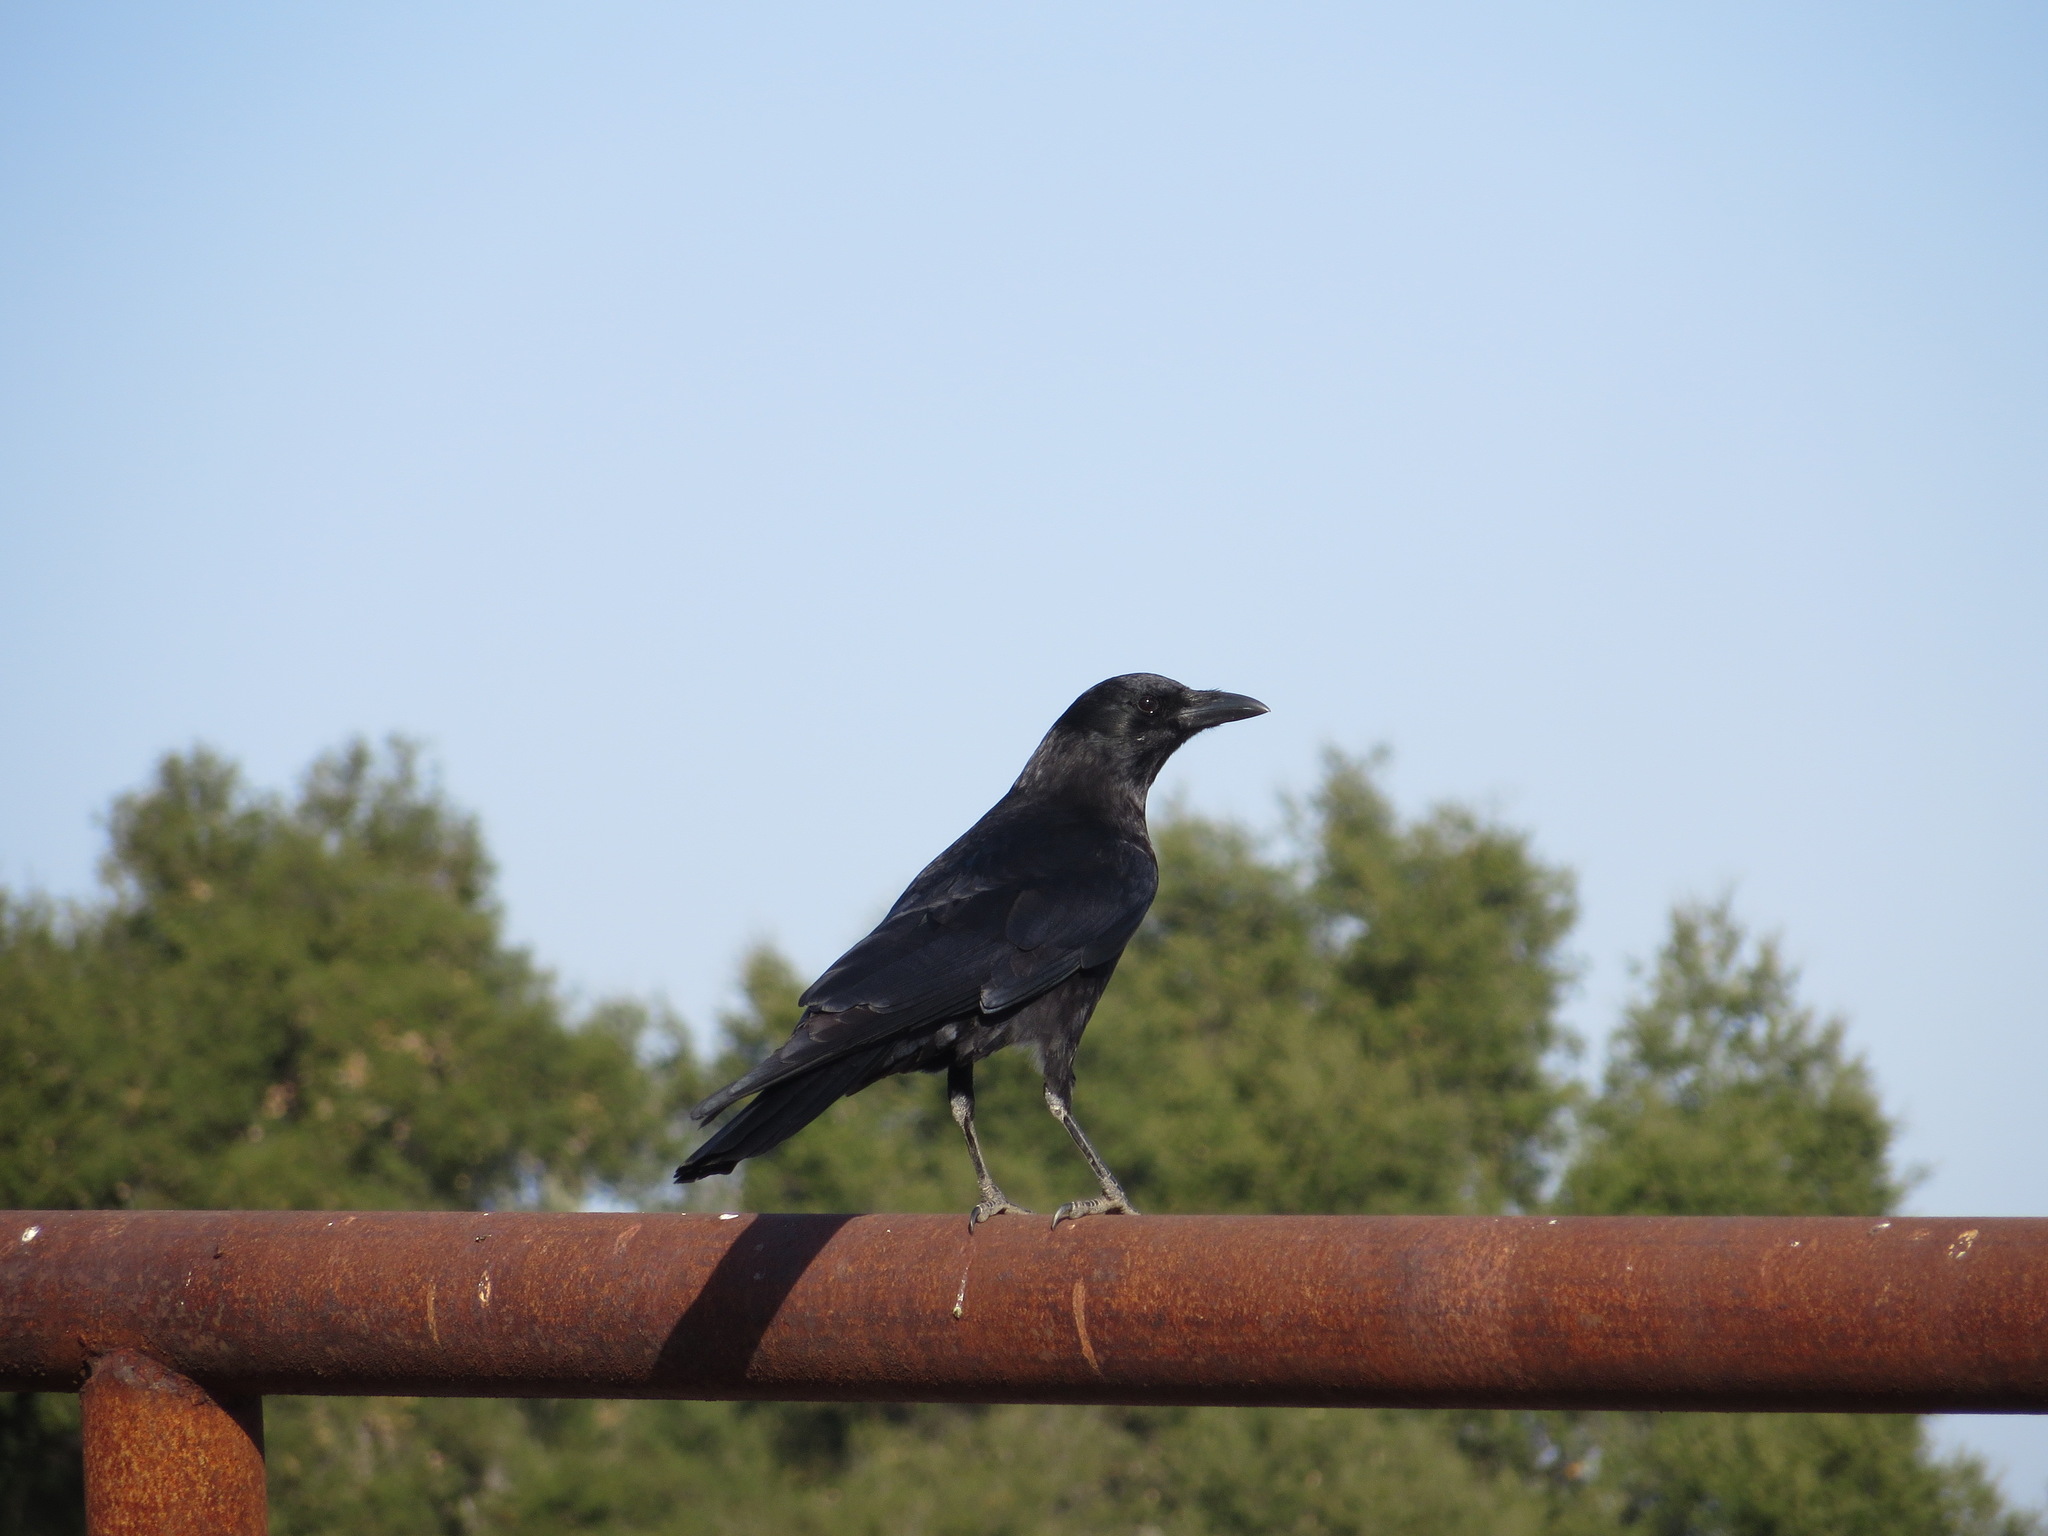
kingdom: Animalia
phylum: Chordata
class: Aves
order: Passeriformes
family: Corvidae
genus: Corvus
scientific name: Corvus brachyrhynchos
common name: American crow
